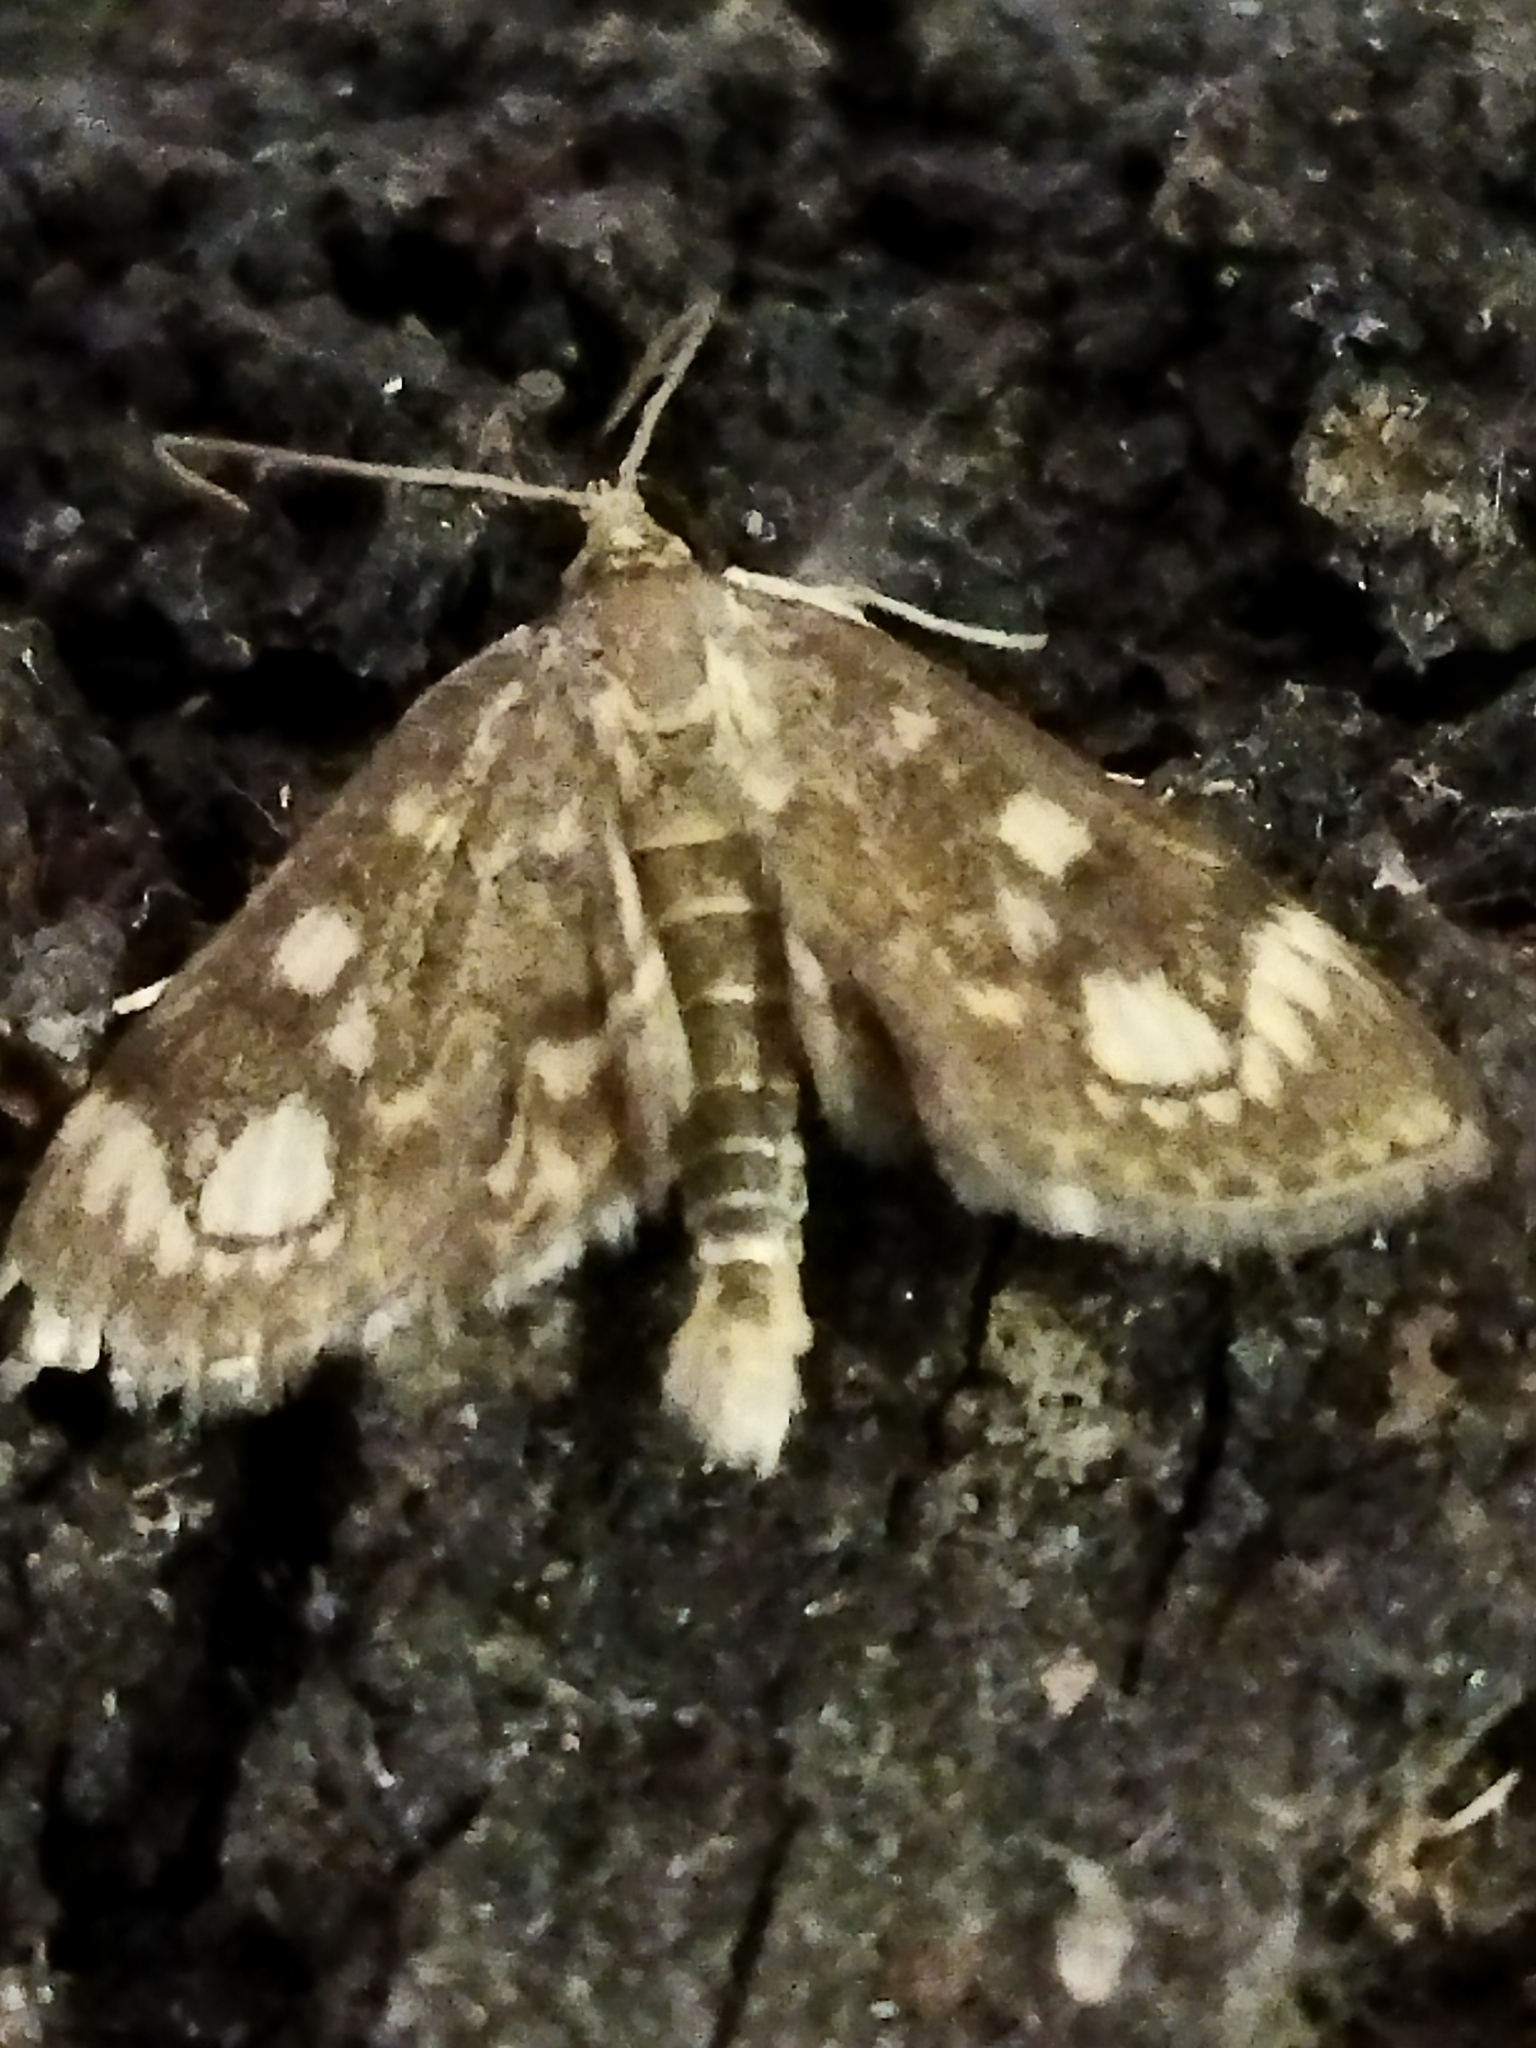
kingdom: Animalia
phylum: Arthropoda
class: Insecta
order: Lepidoptera
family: Crambidae
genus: Anania
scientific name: Anania coronata
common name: Elder pearl
